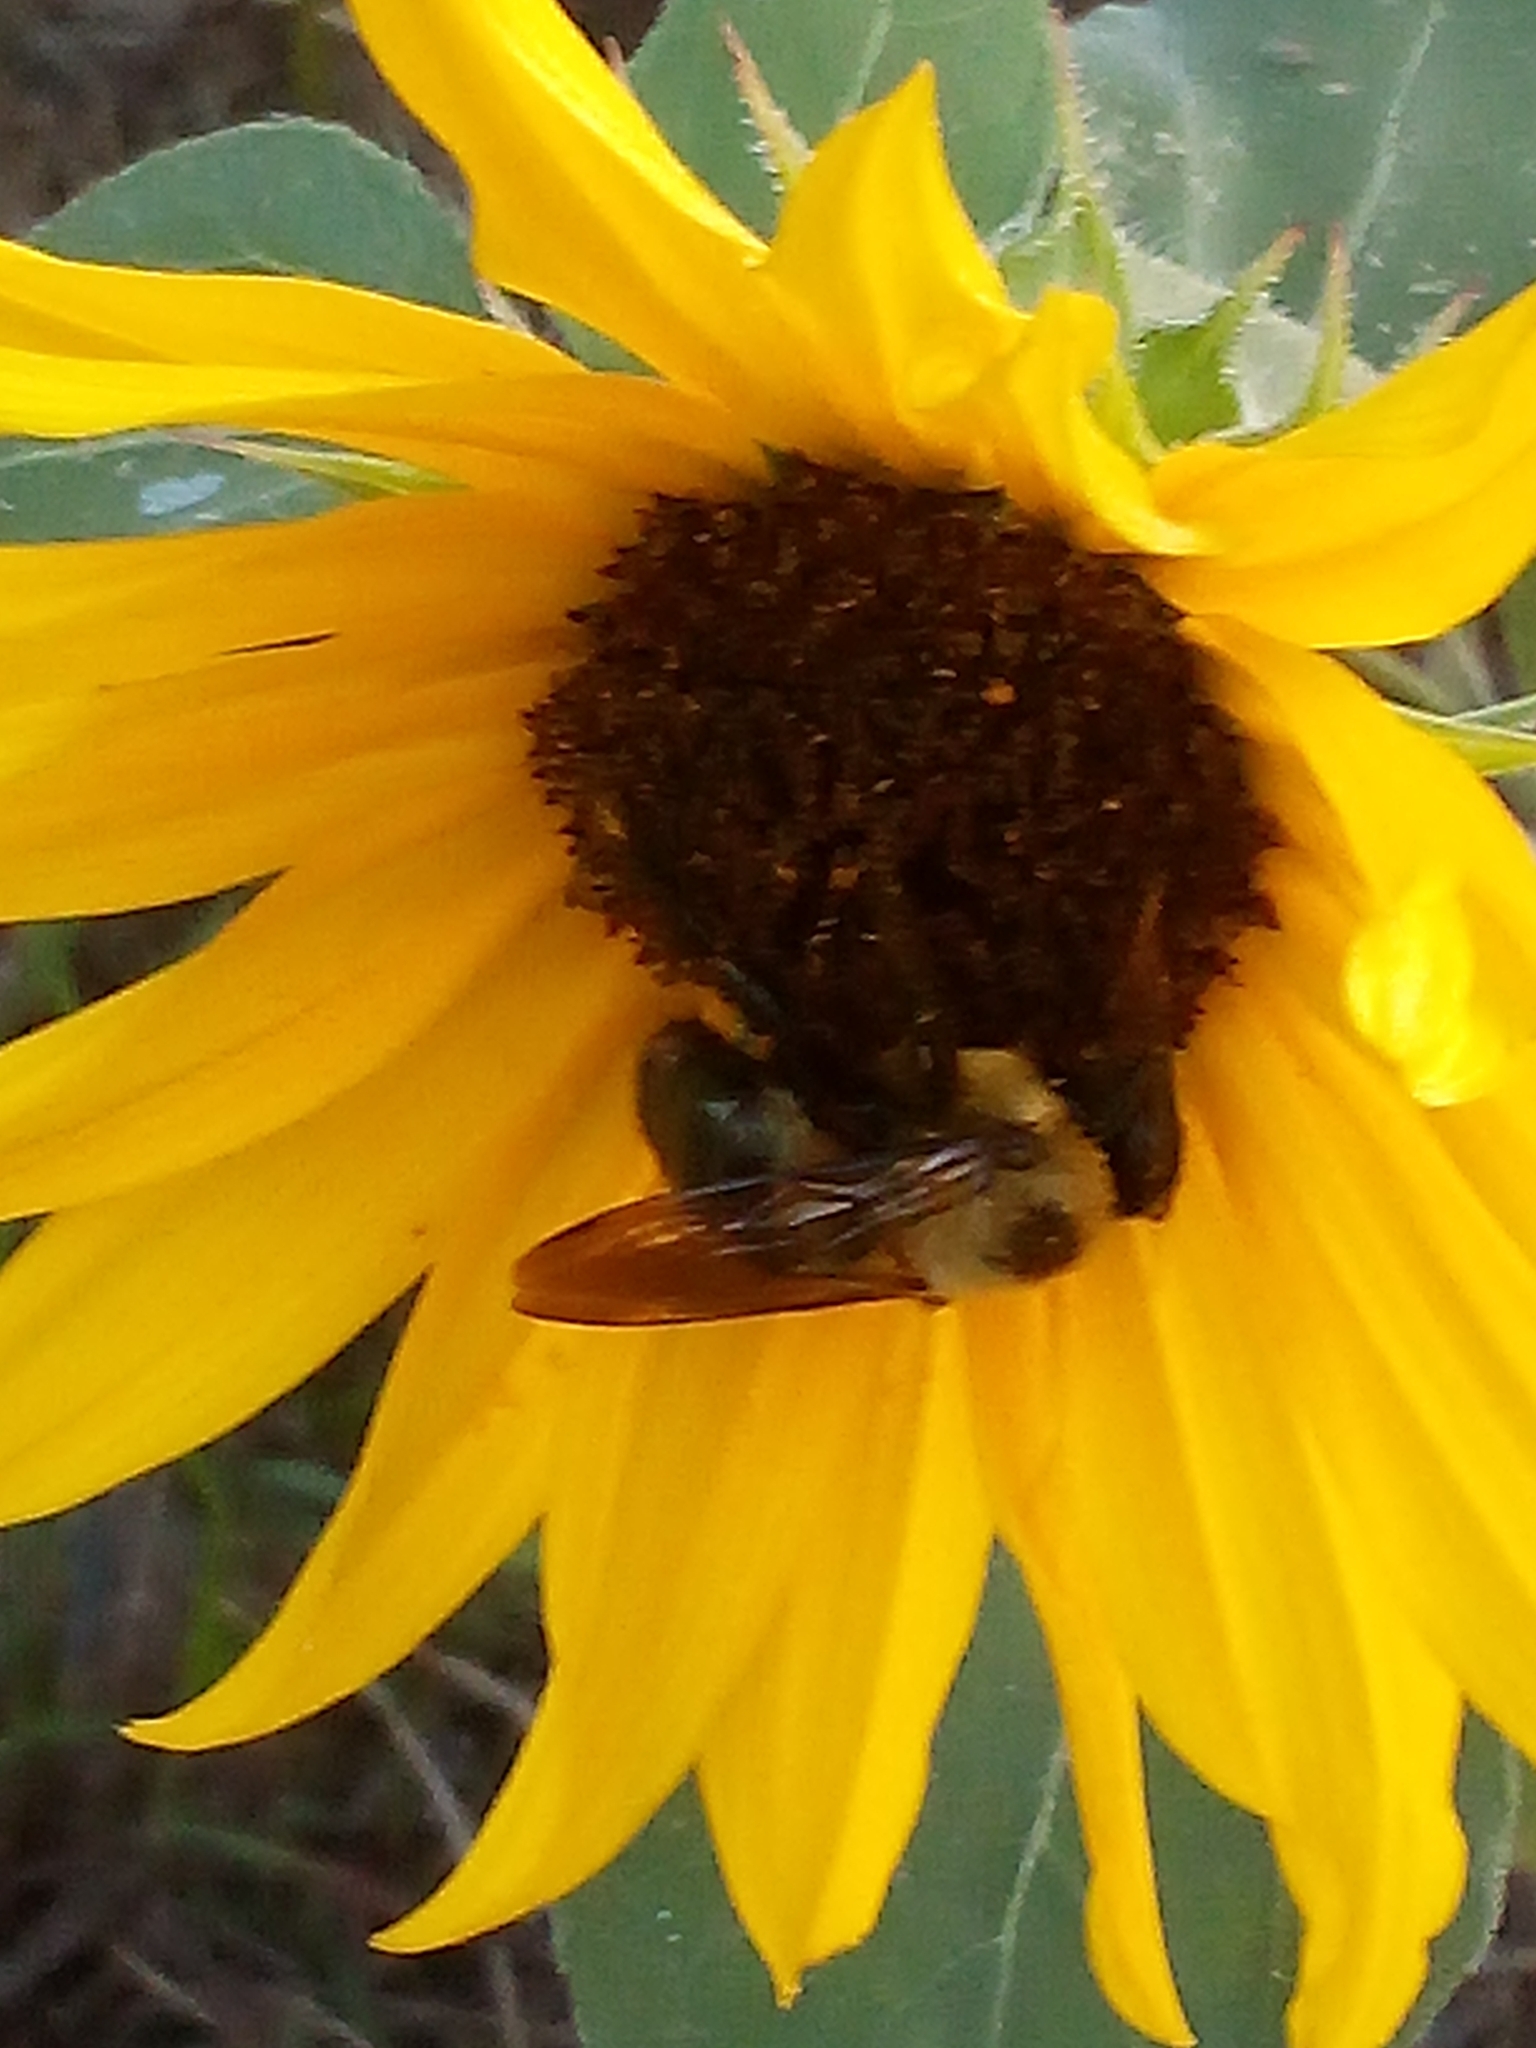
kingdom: Animalia
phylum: Arthropoda
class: Insecta
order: Hymenoptera
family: Apidae
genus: Xylocopa
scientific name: Xylocopa virginica
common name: Carpenter bee
